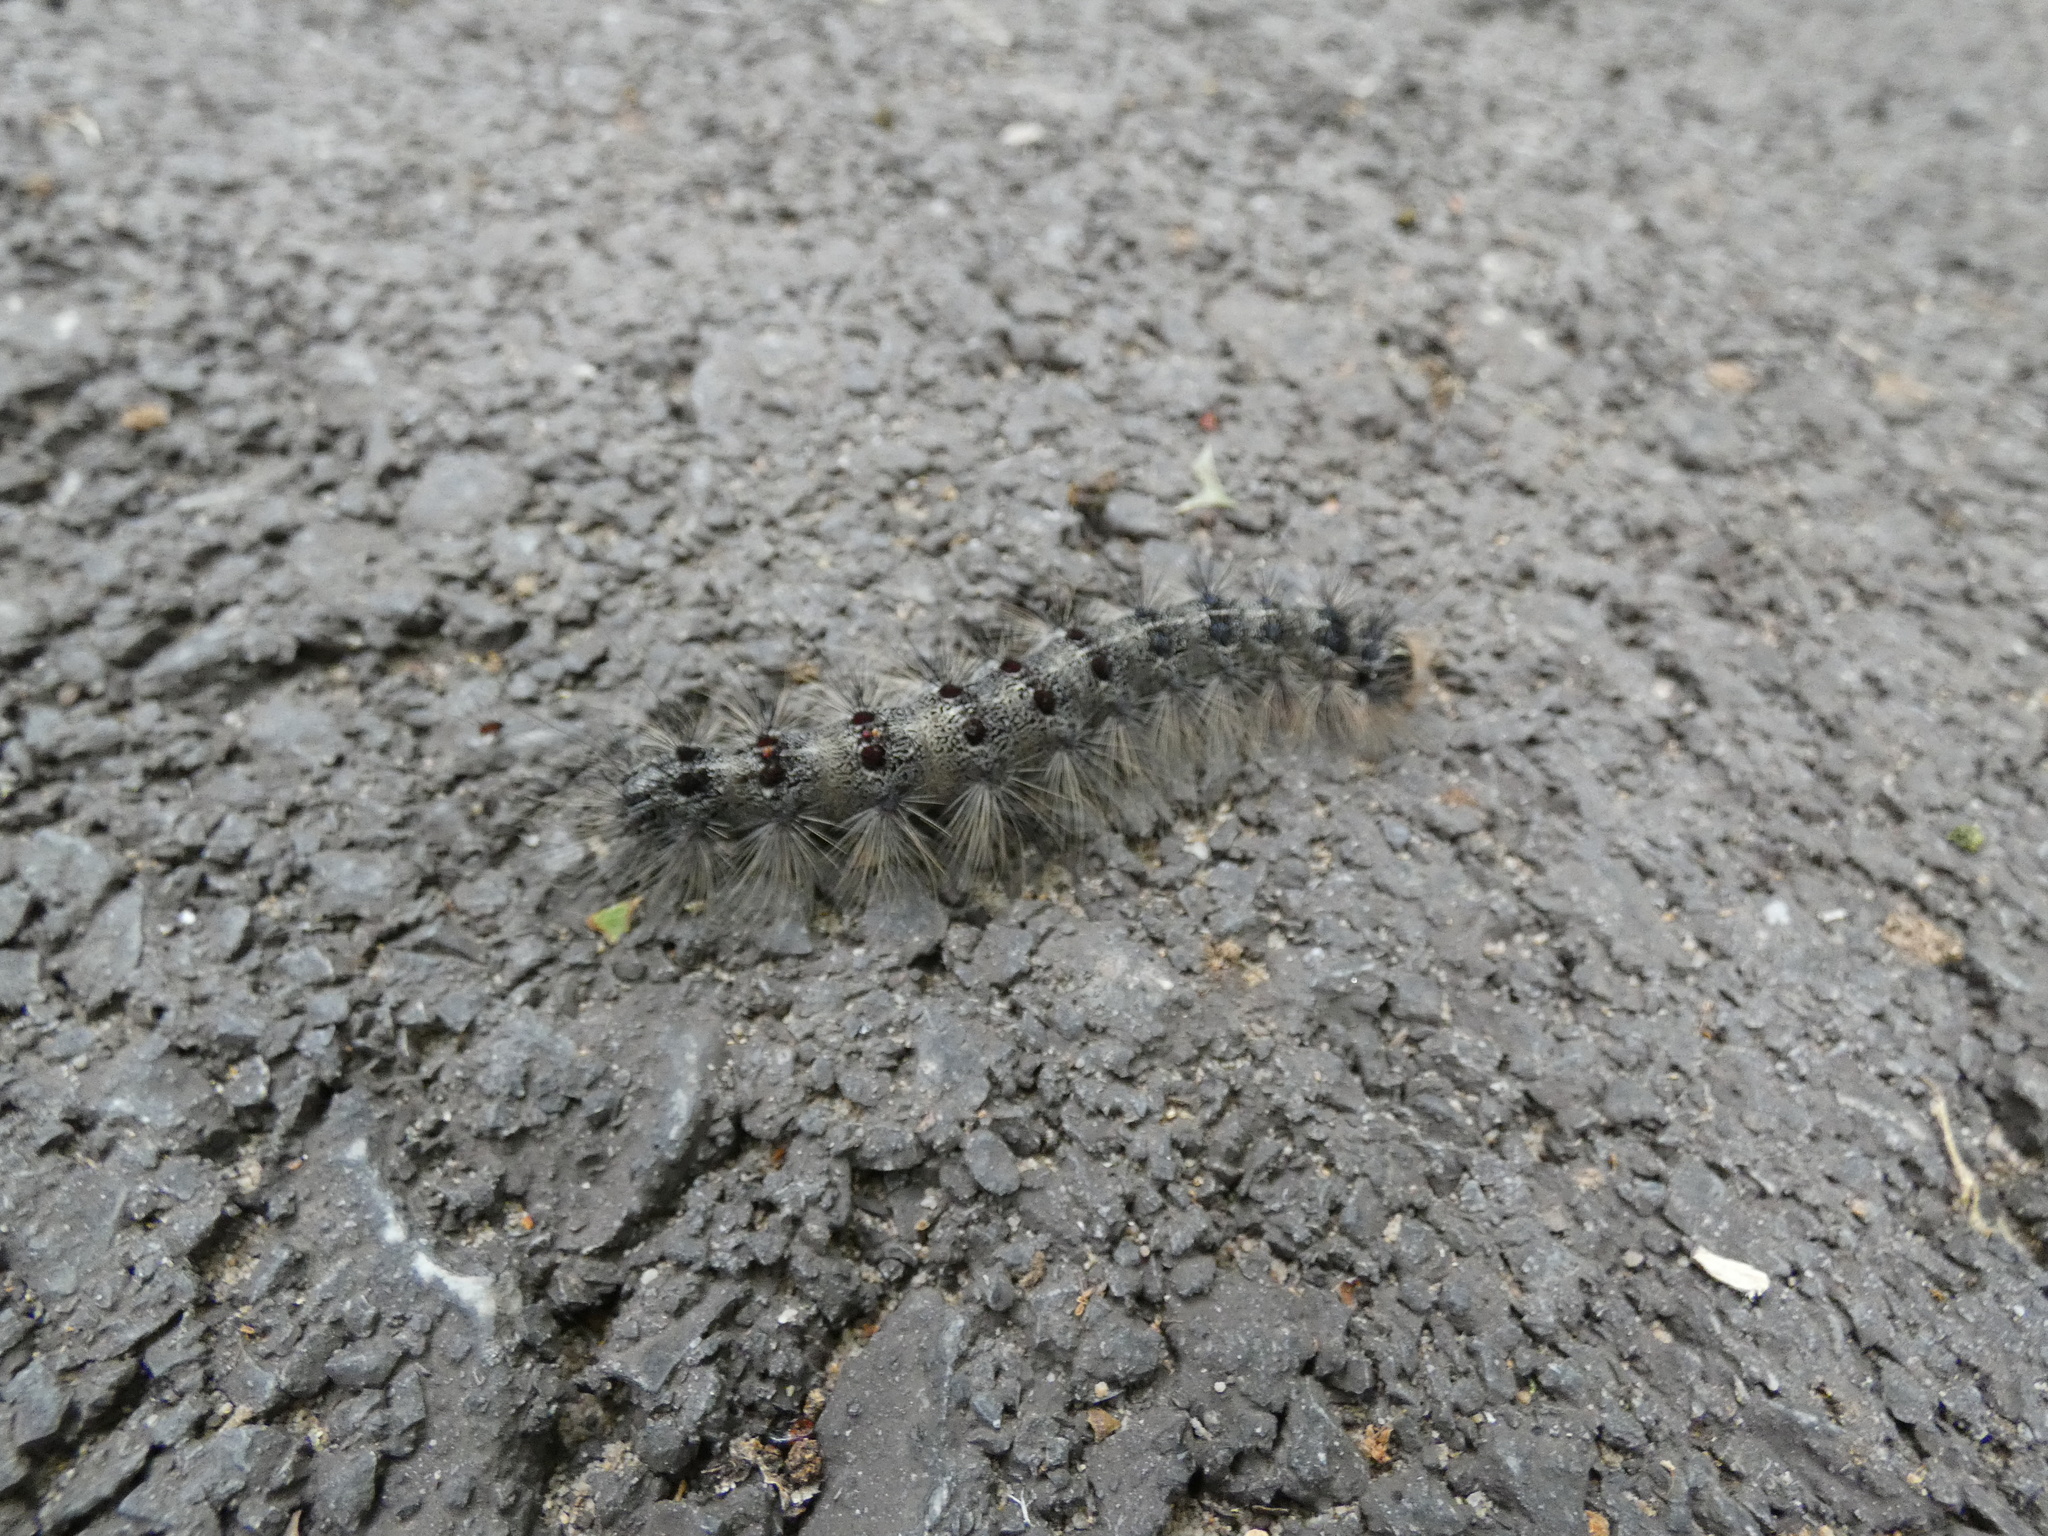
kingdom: Animalia
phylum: Arthropoda
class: Insecta
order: Lepidoptera
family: Erebidae
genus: Lymantria
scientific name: Lymantria dispar
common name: Gypsy moth
